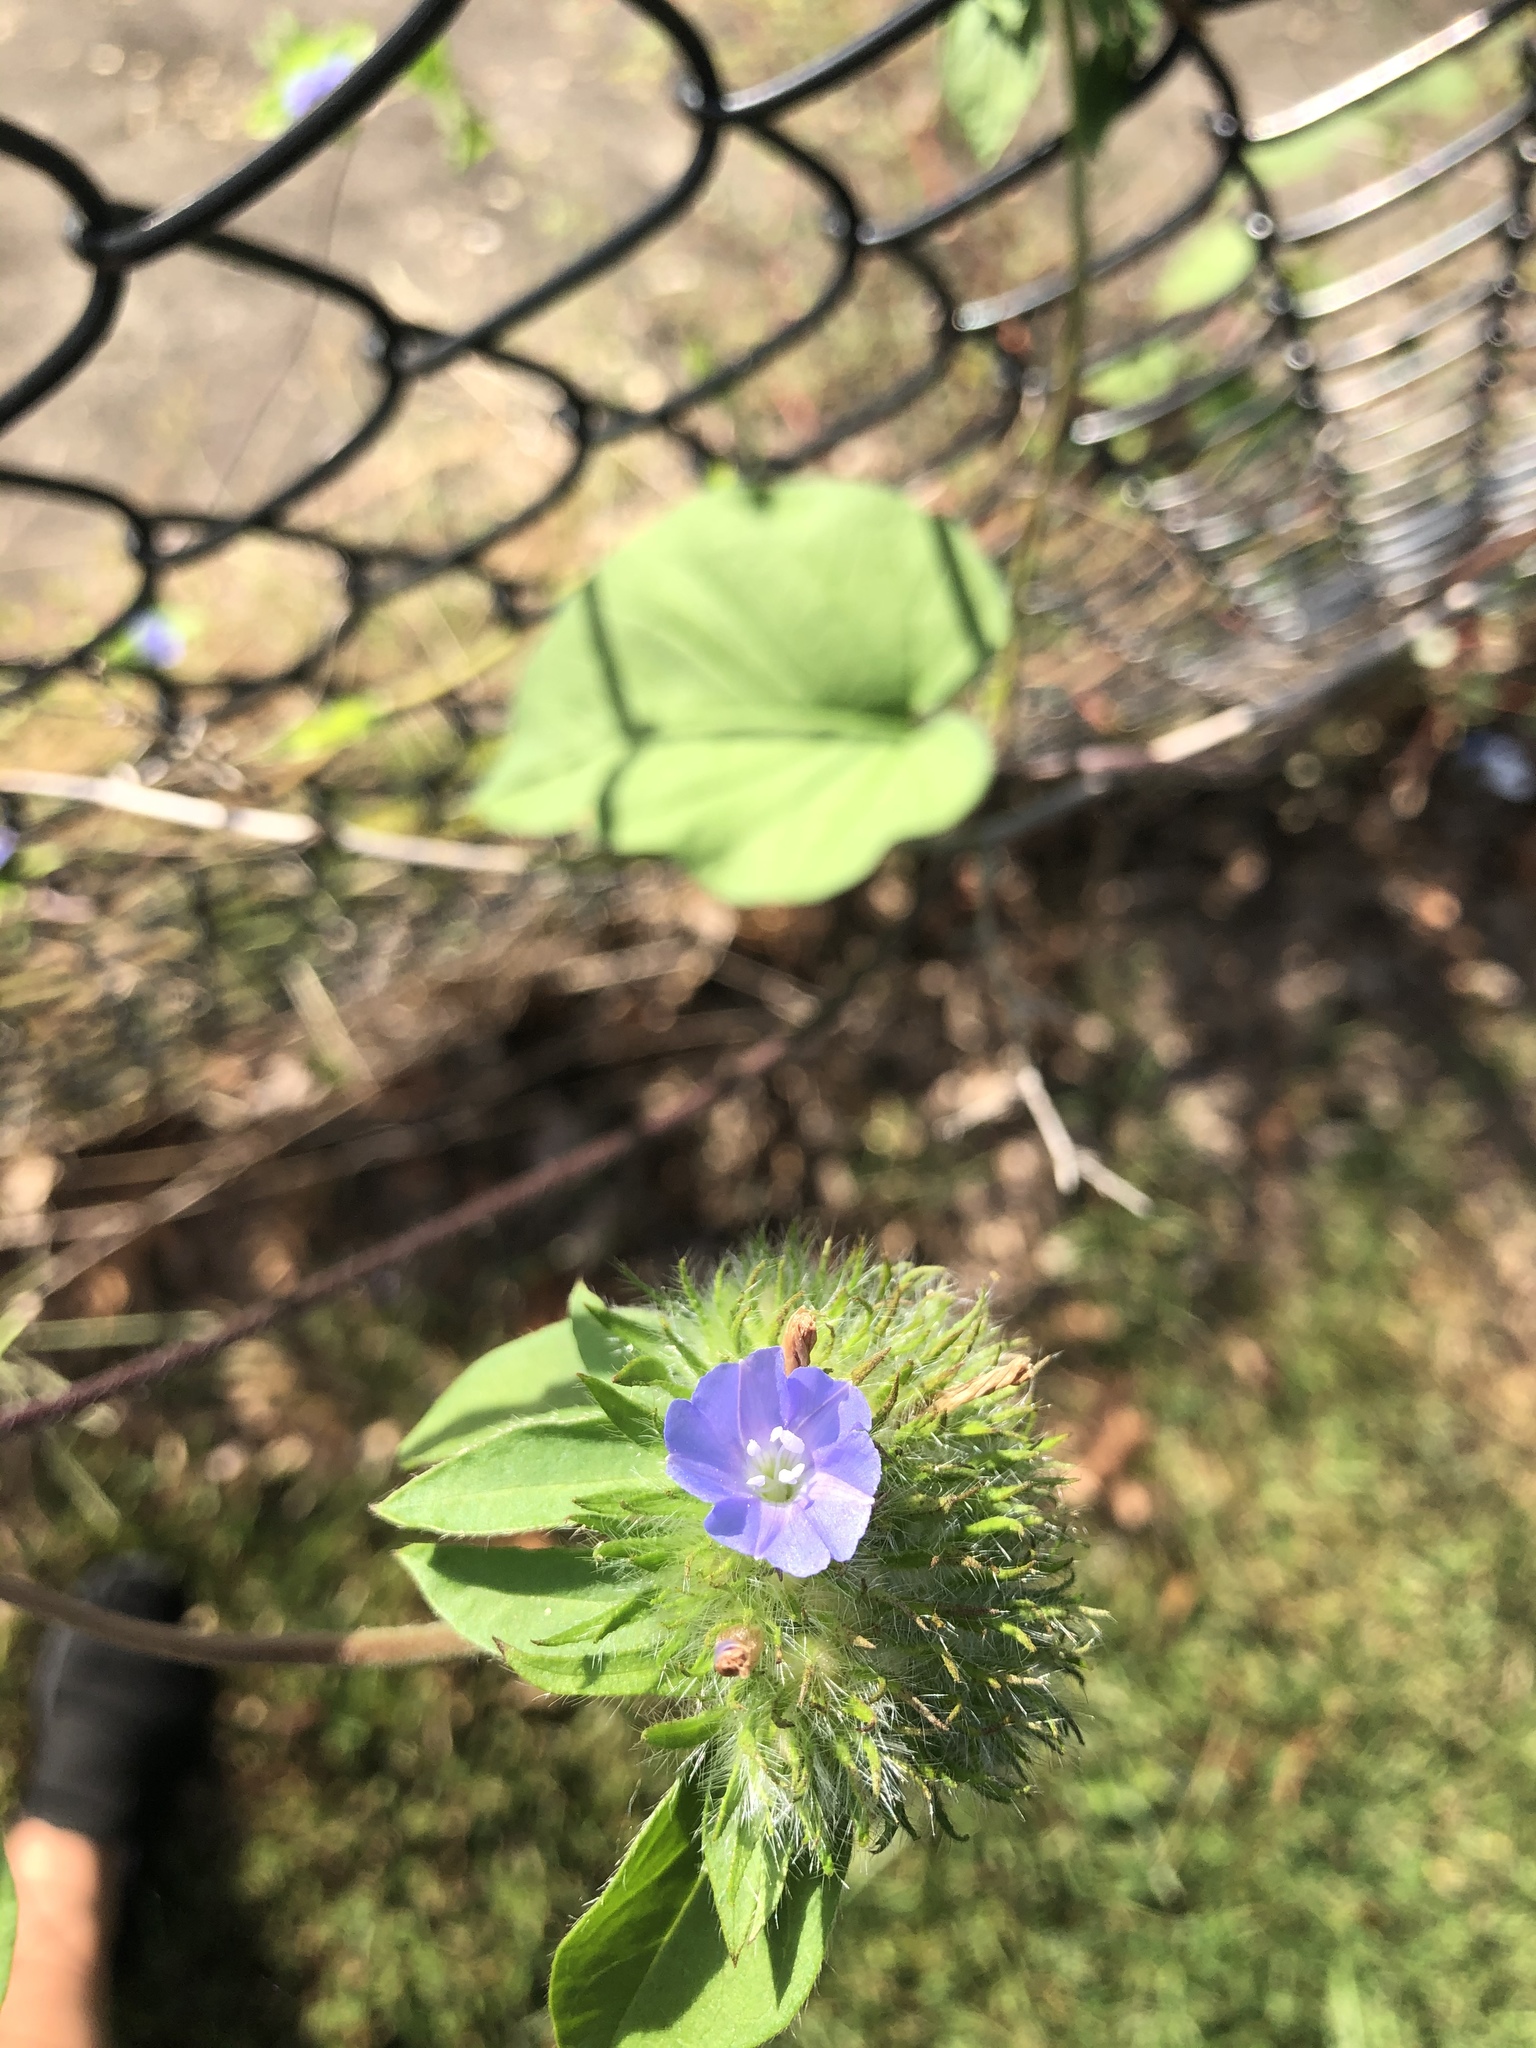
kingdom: Plantae
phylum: Tracheophyta
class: Magnoliopsida
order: Solanales
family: Convolvulaceae
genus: Jacquemontia
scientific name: Jacquemontia tamnifolia
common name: Hairy clustervine
